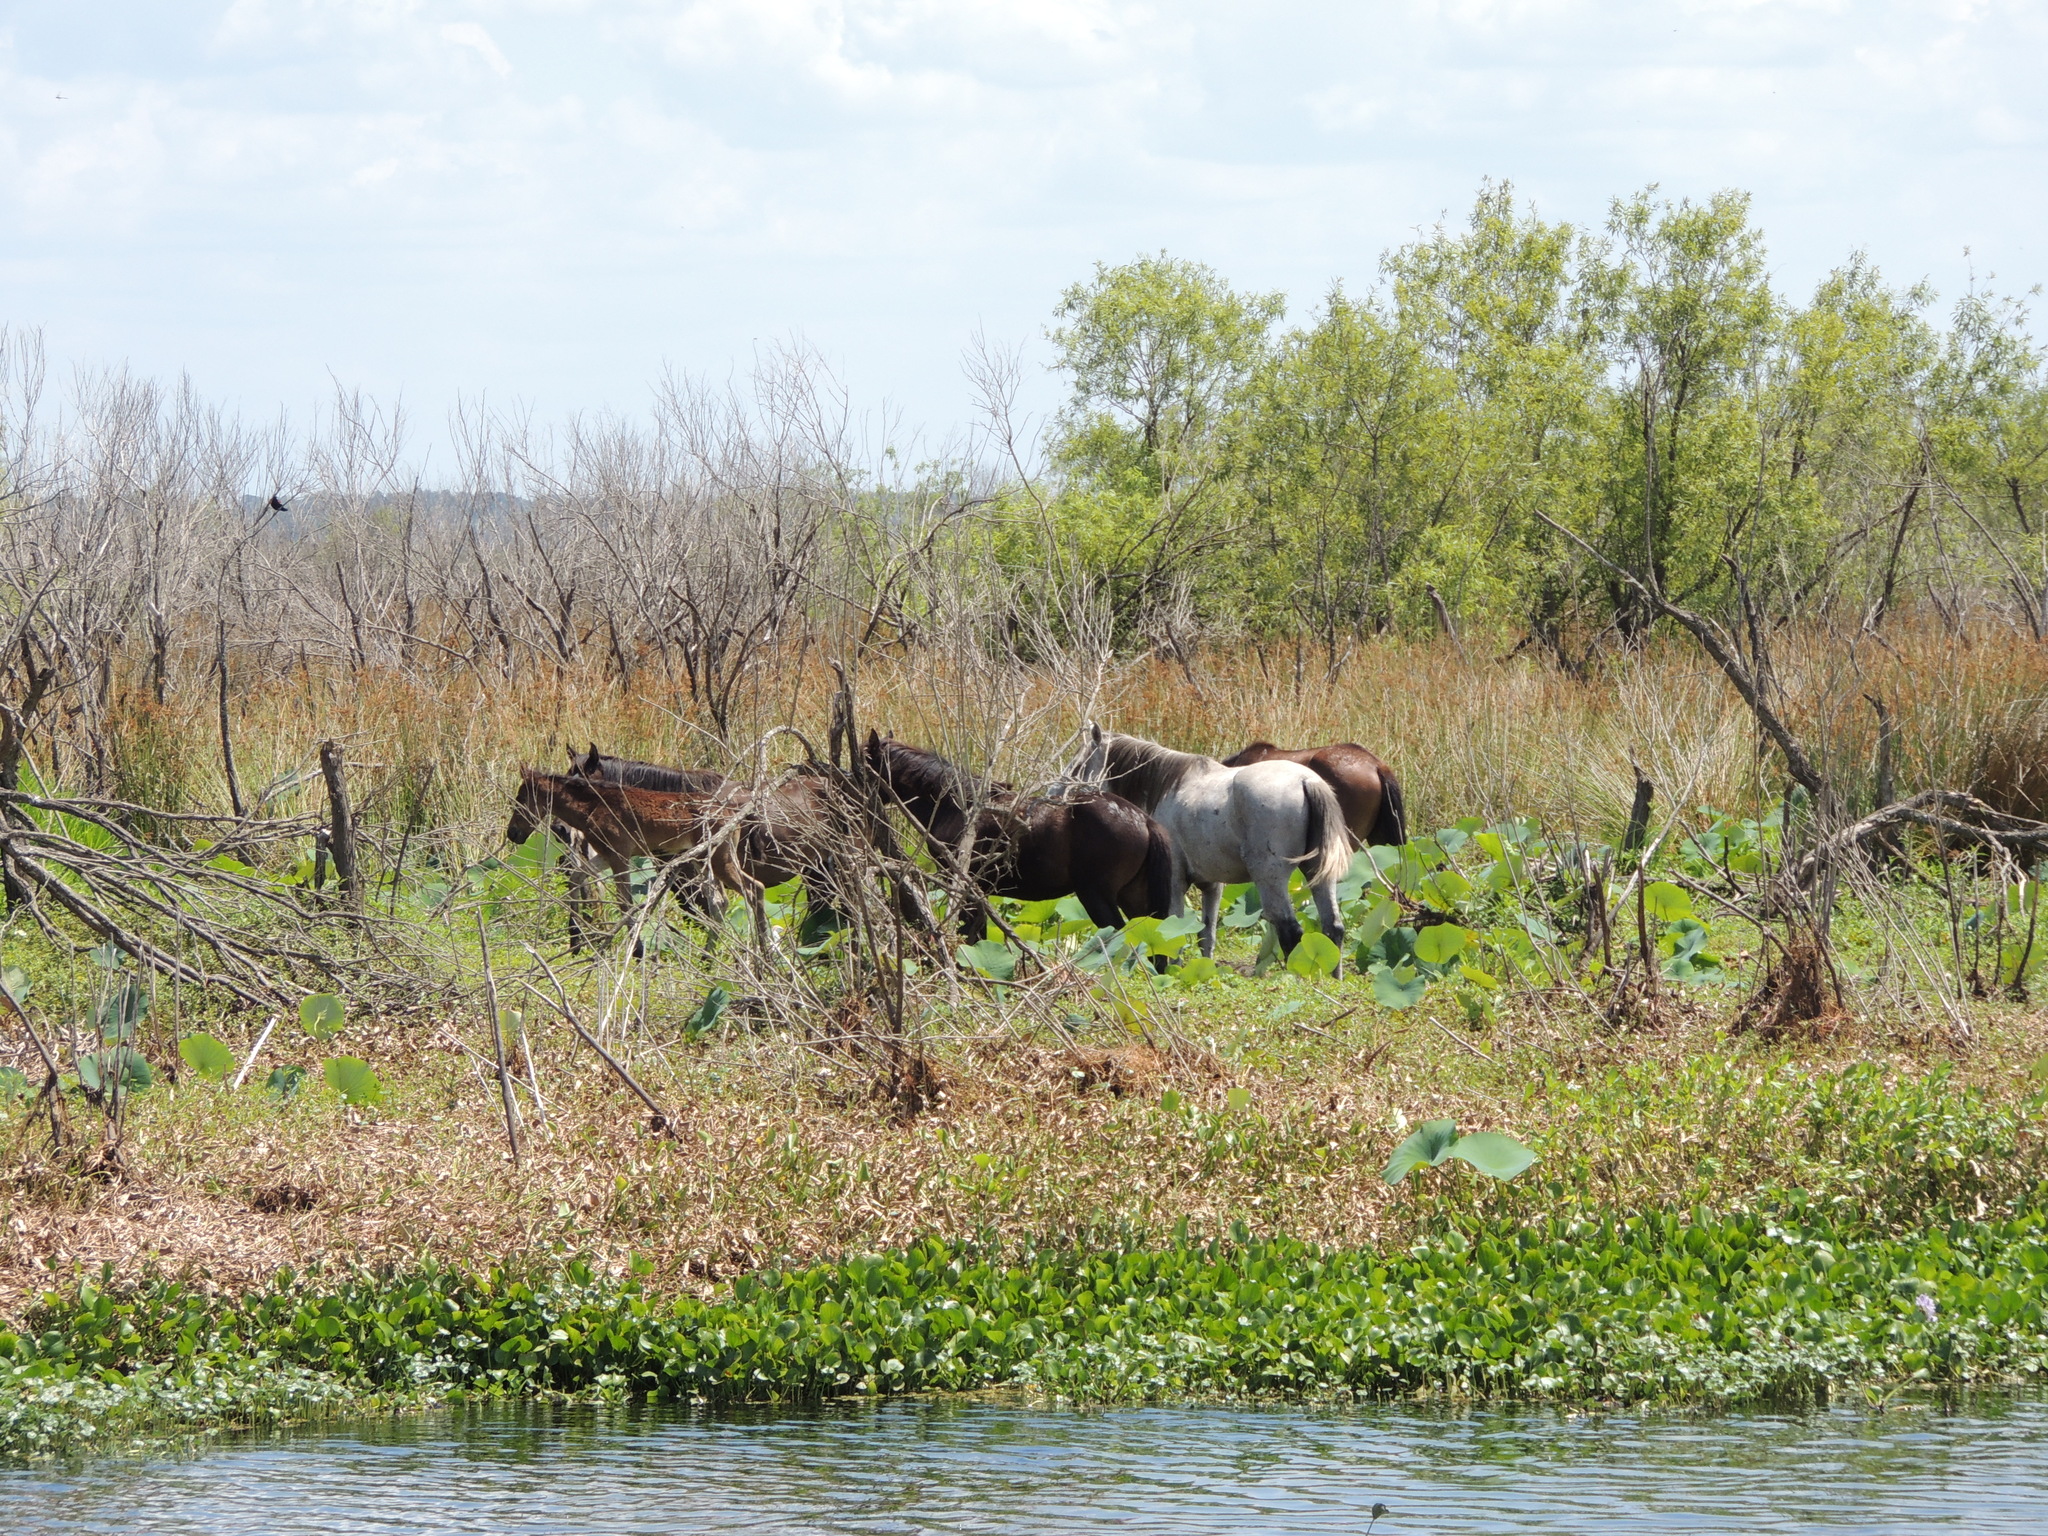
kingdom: Animalia
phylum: Chordata
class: Mammalia
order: Perissodactyla
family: Equidae
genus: Equus
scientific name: Equus caballus
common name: Horse
